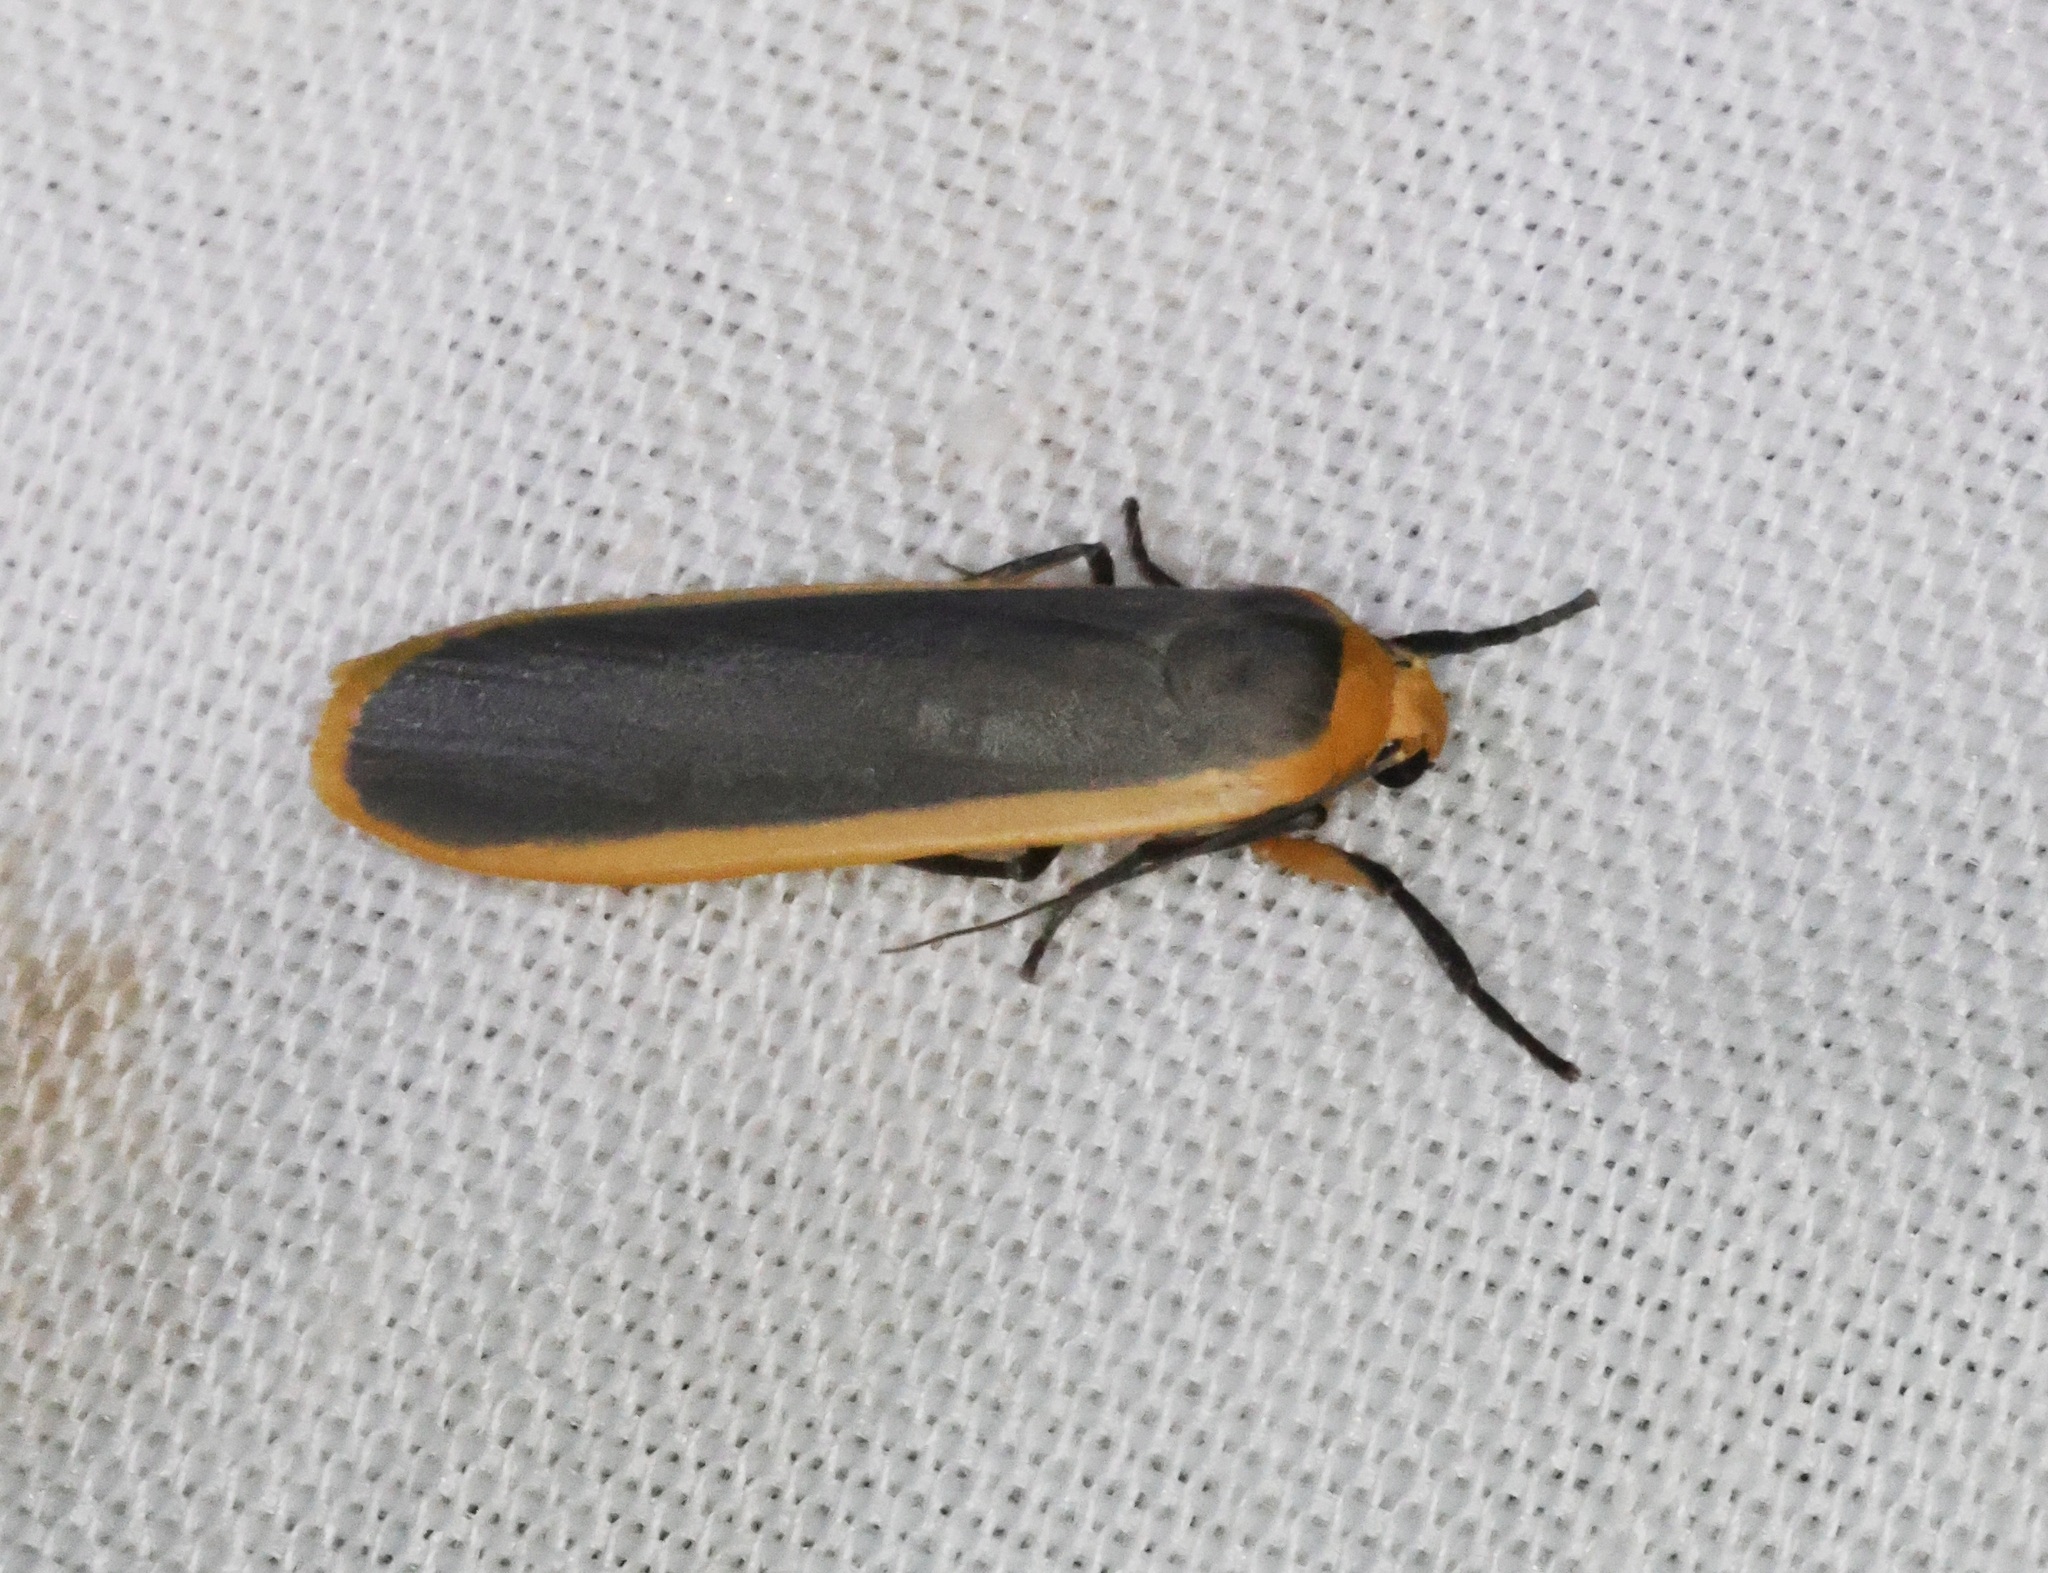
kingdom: Animalia
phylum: Arthropoda
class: Insecta
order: Lepidoptera
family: Erebidae
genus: Brunia
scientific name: Brunia antica
